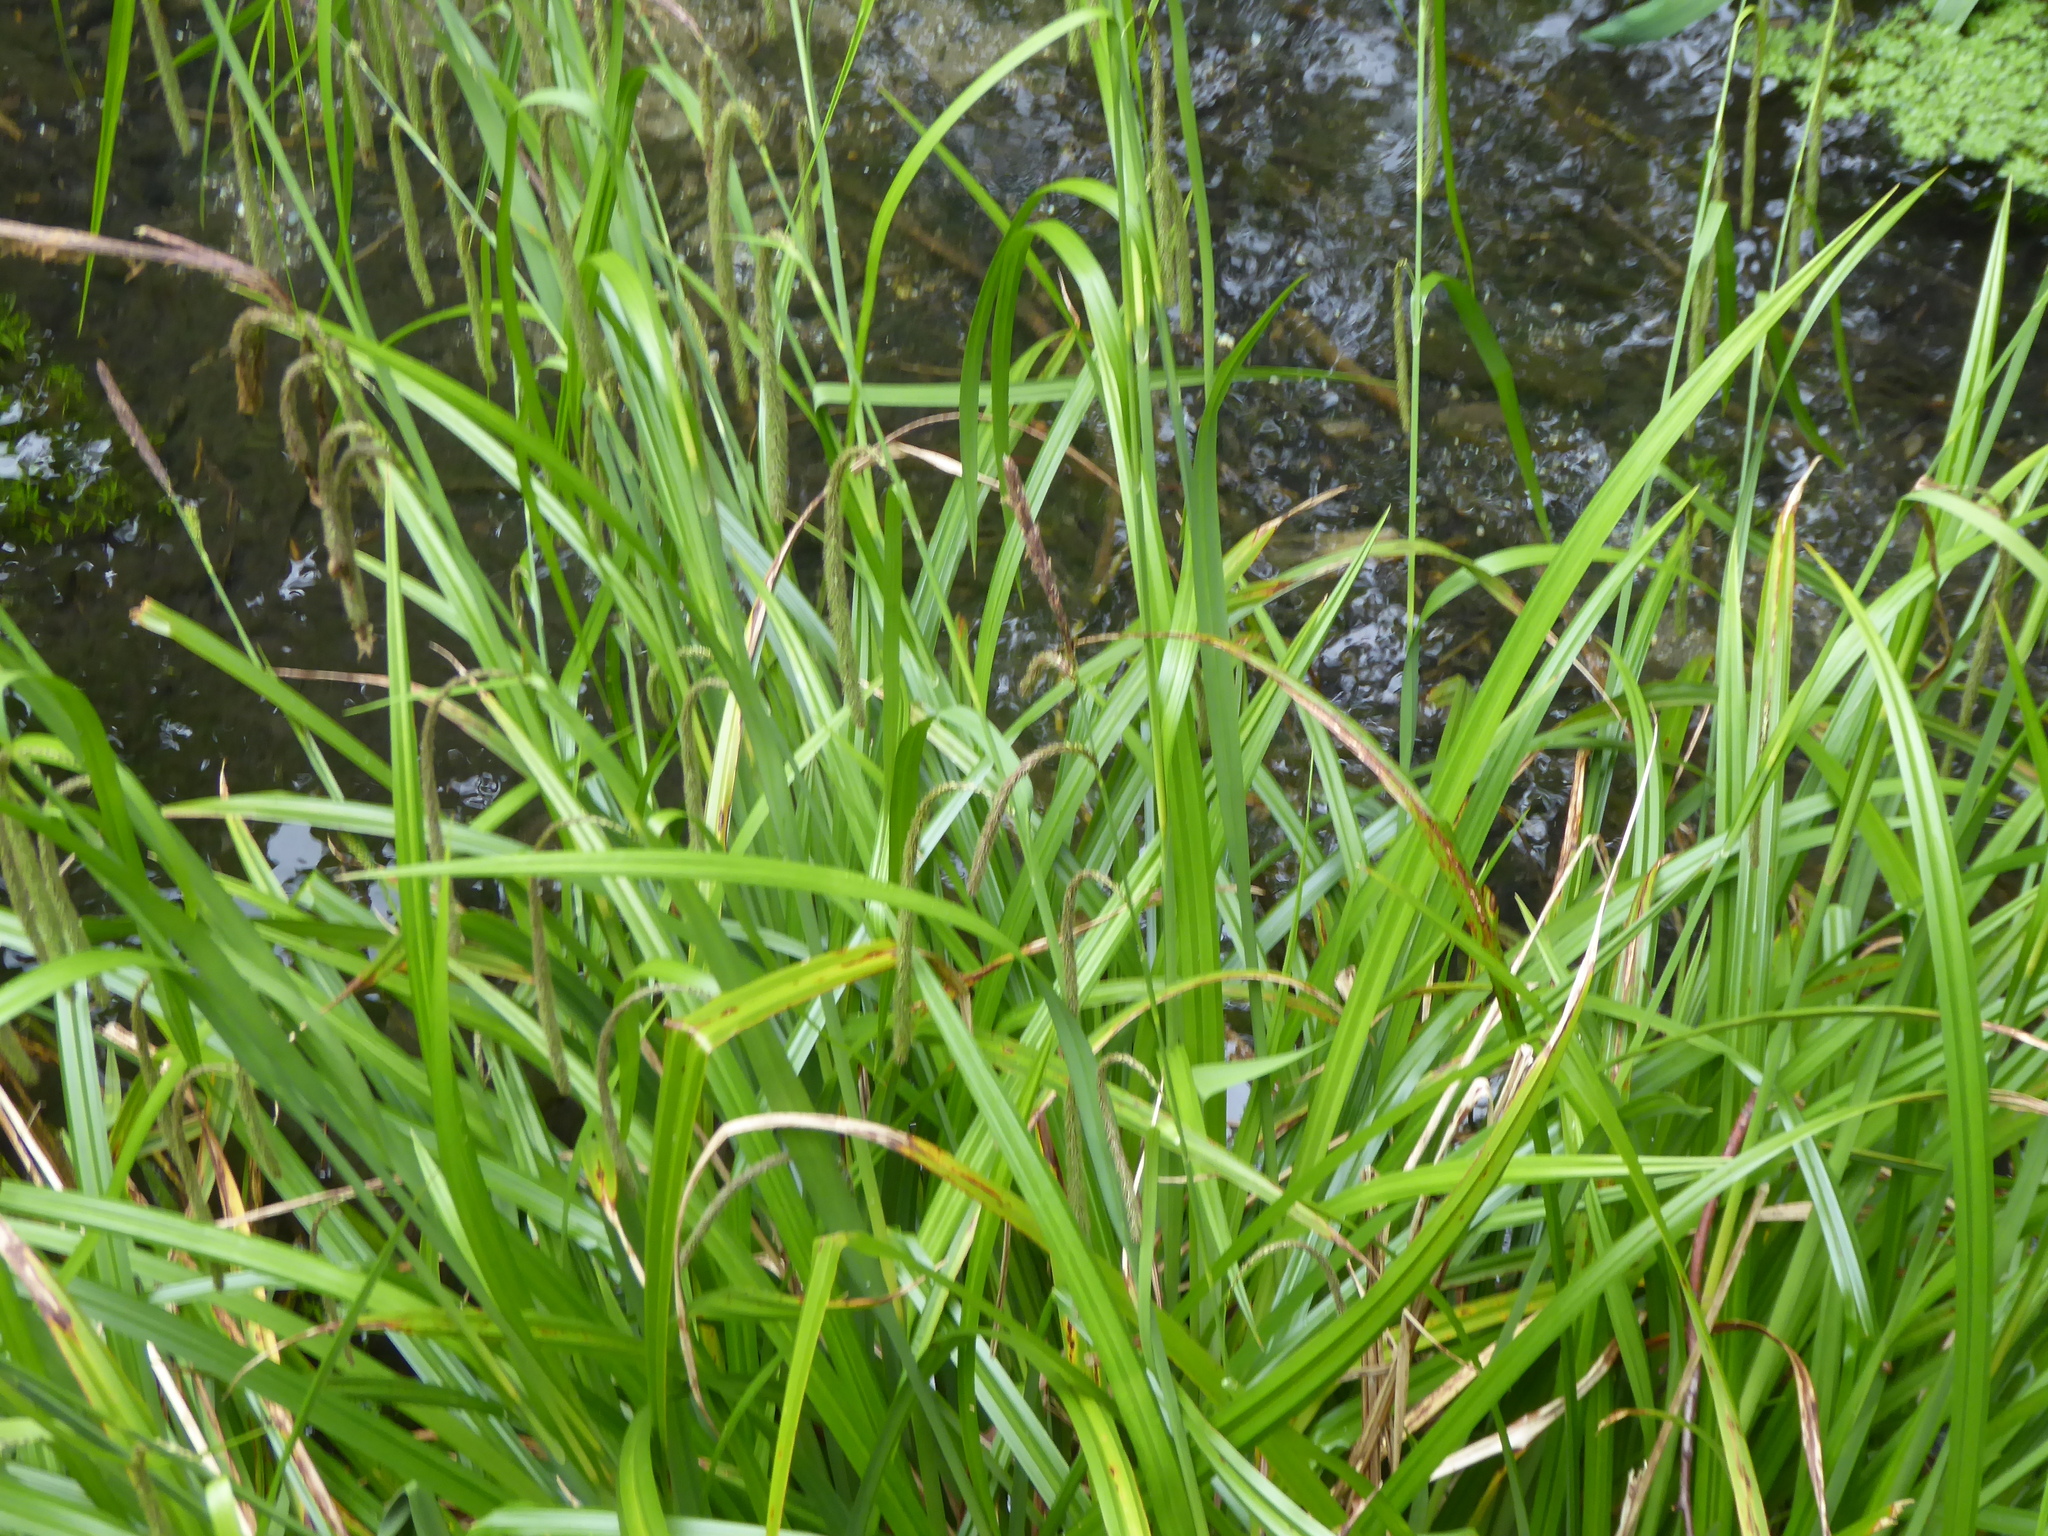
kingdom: Plantae
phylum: Tracheophyta
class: Liliopsida
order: Poales
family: Cyperaceae
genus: Carex
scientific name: Carex pendula
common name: Pendulous sedge
